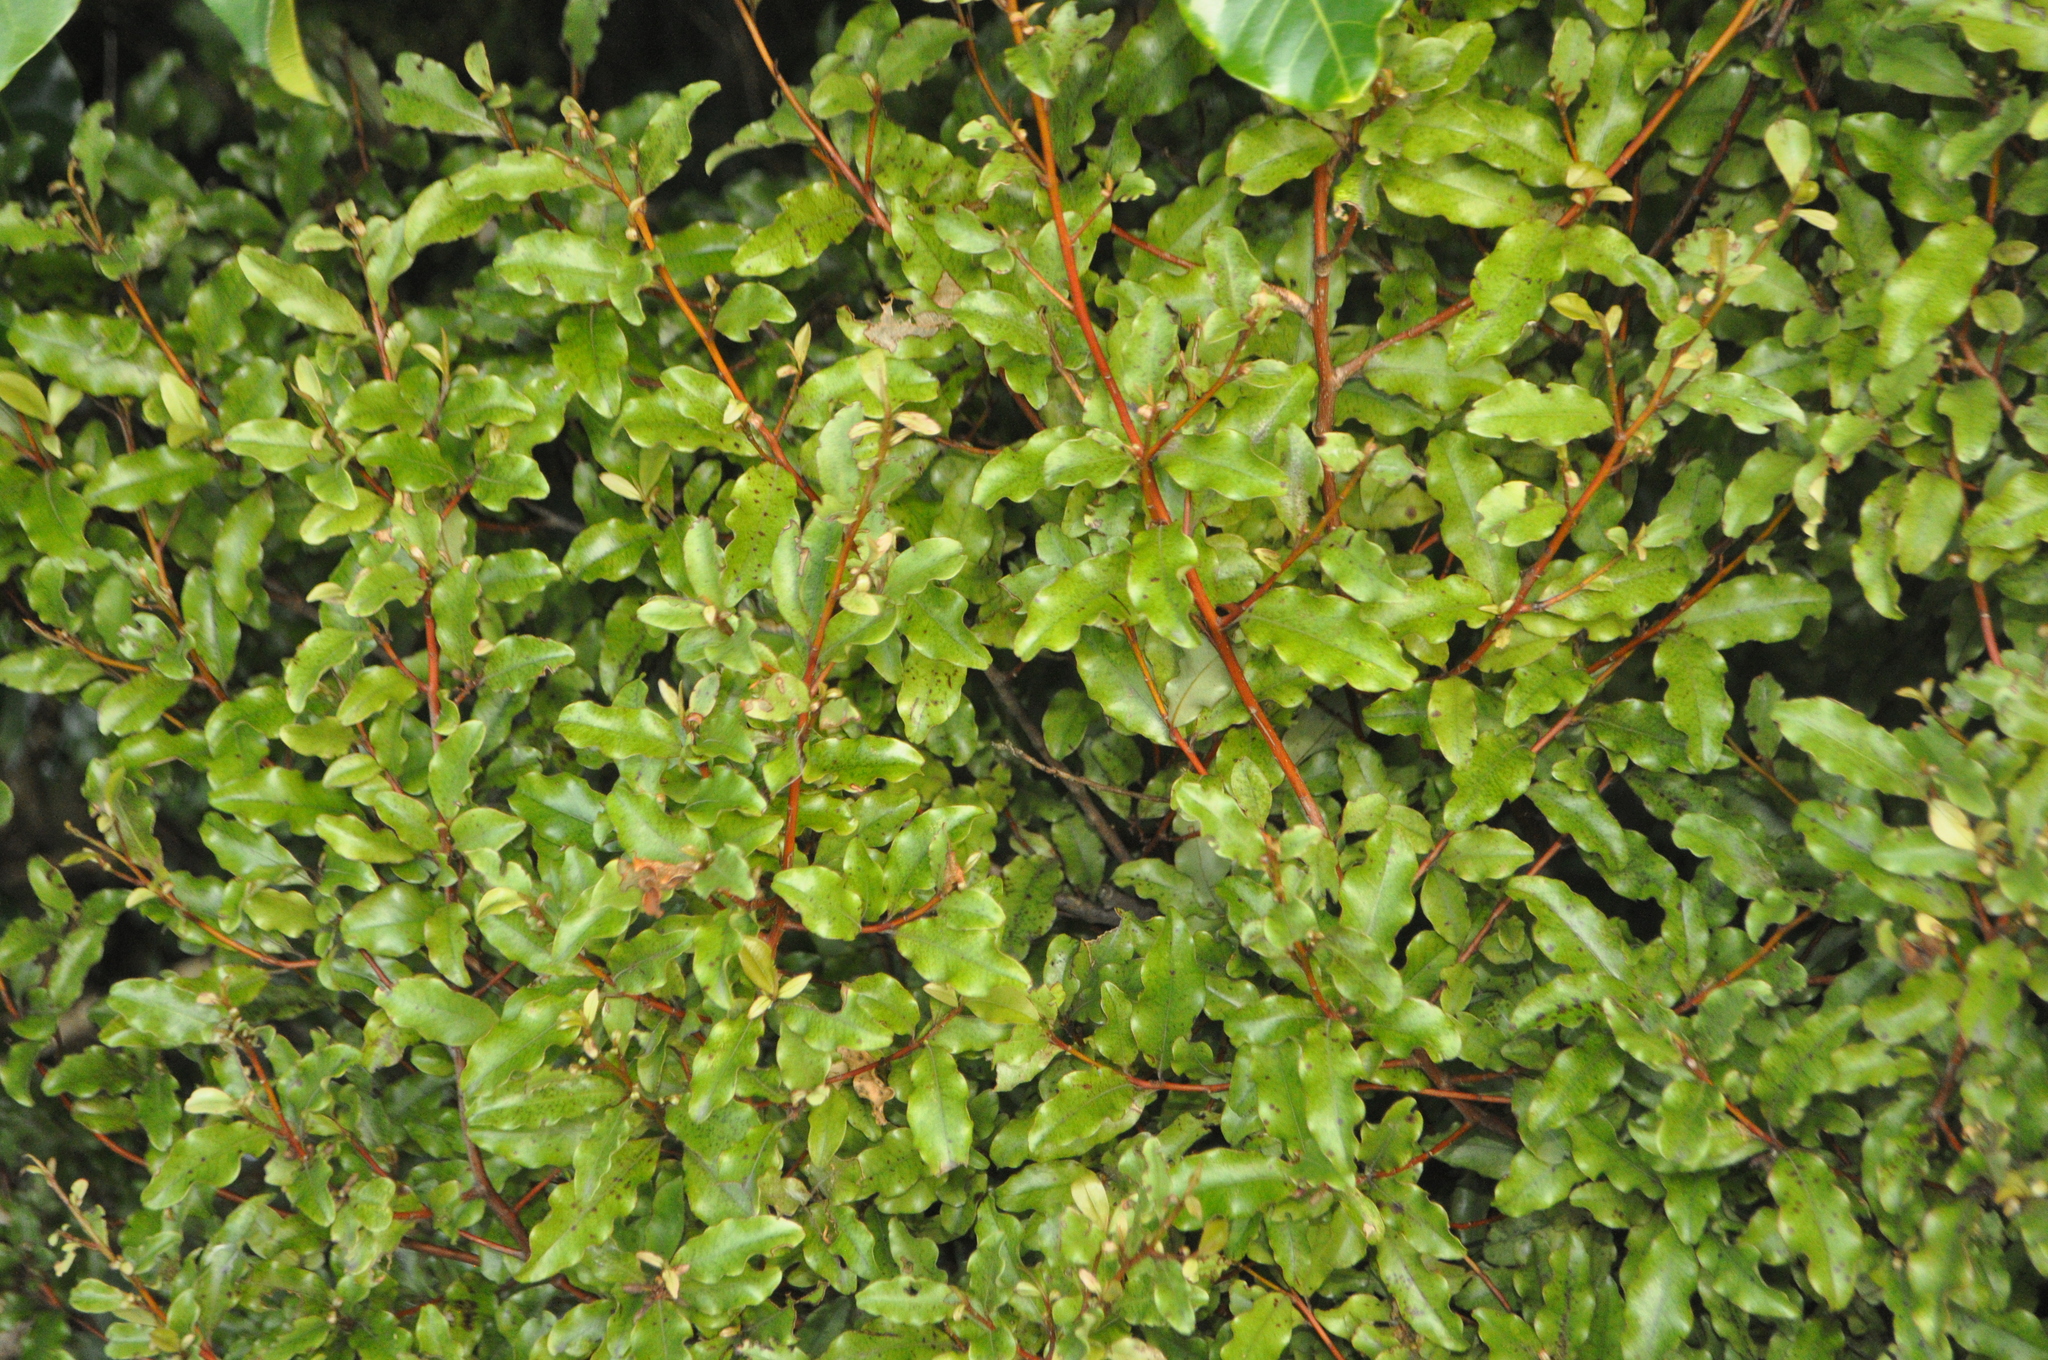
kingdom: Plantae
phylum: Tracheophyta
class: Magnoliopsida
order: Ericales
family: Primulaceae
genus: Myrsine
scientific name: Myrsine australis
